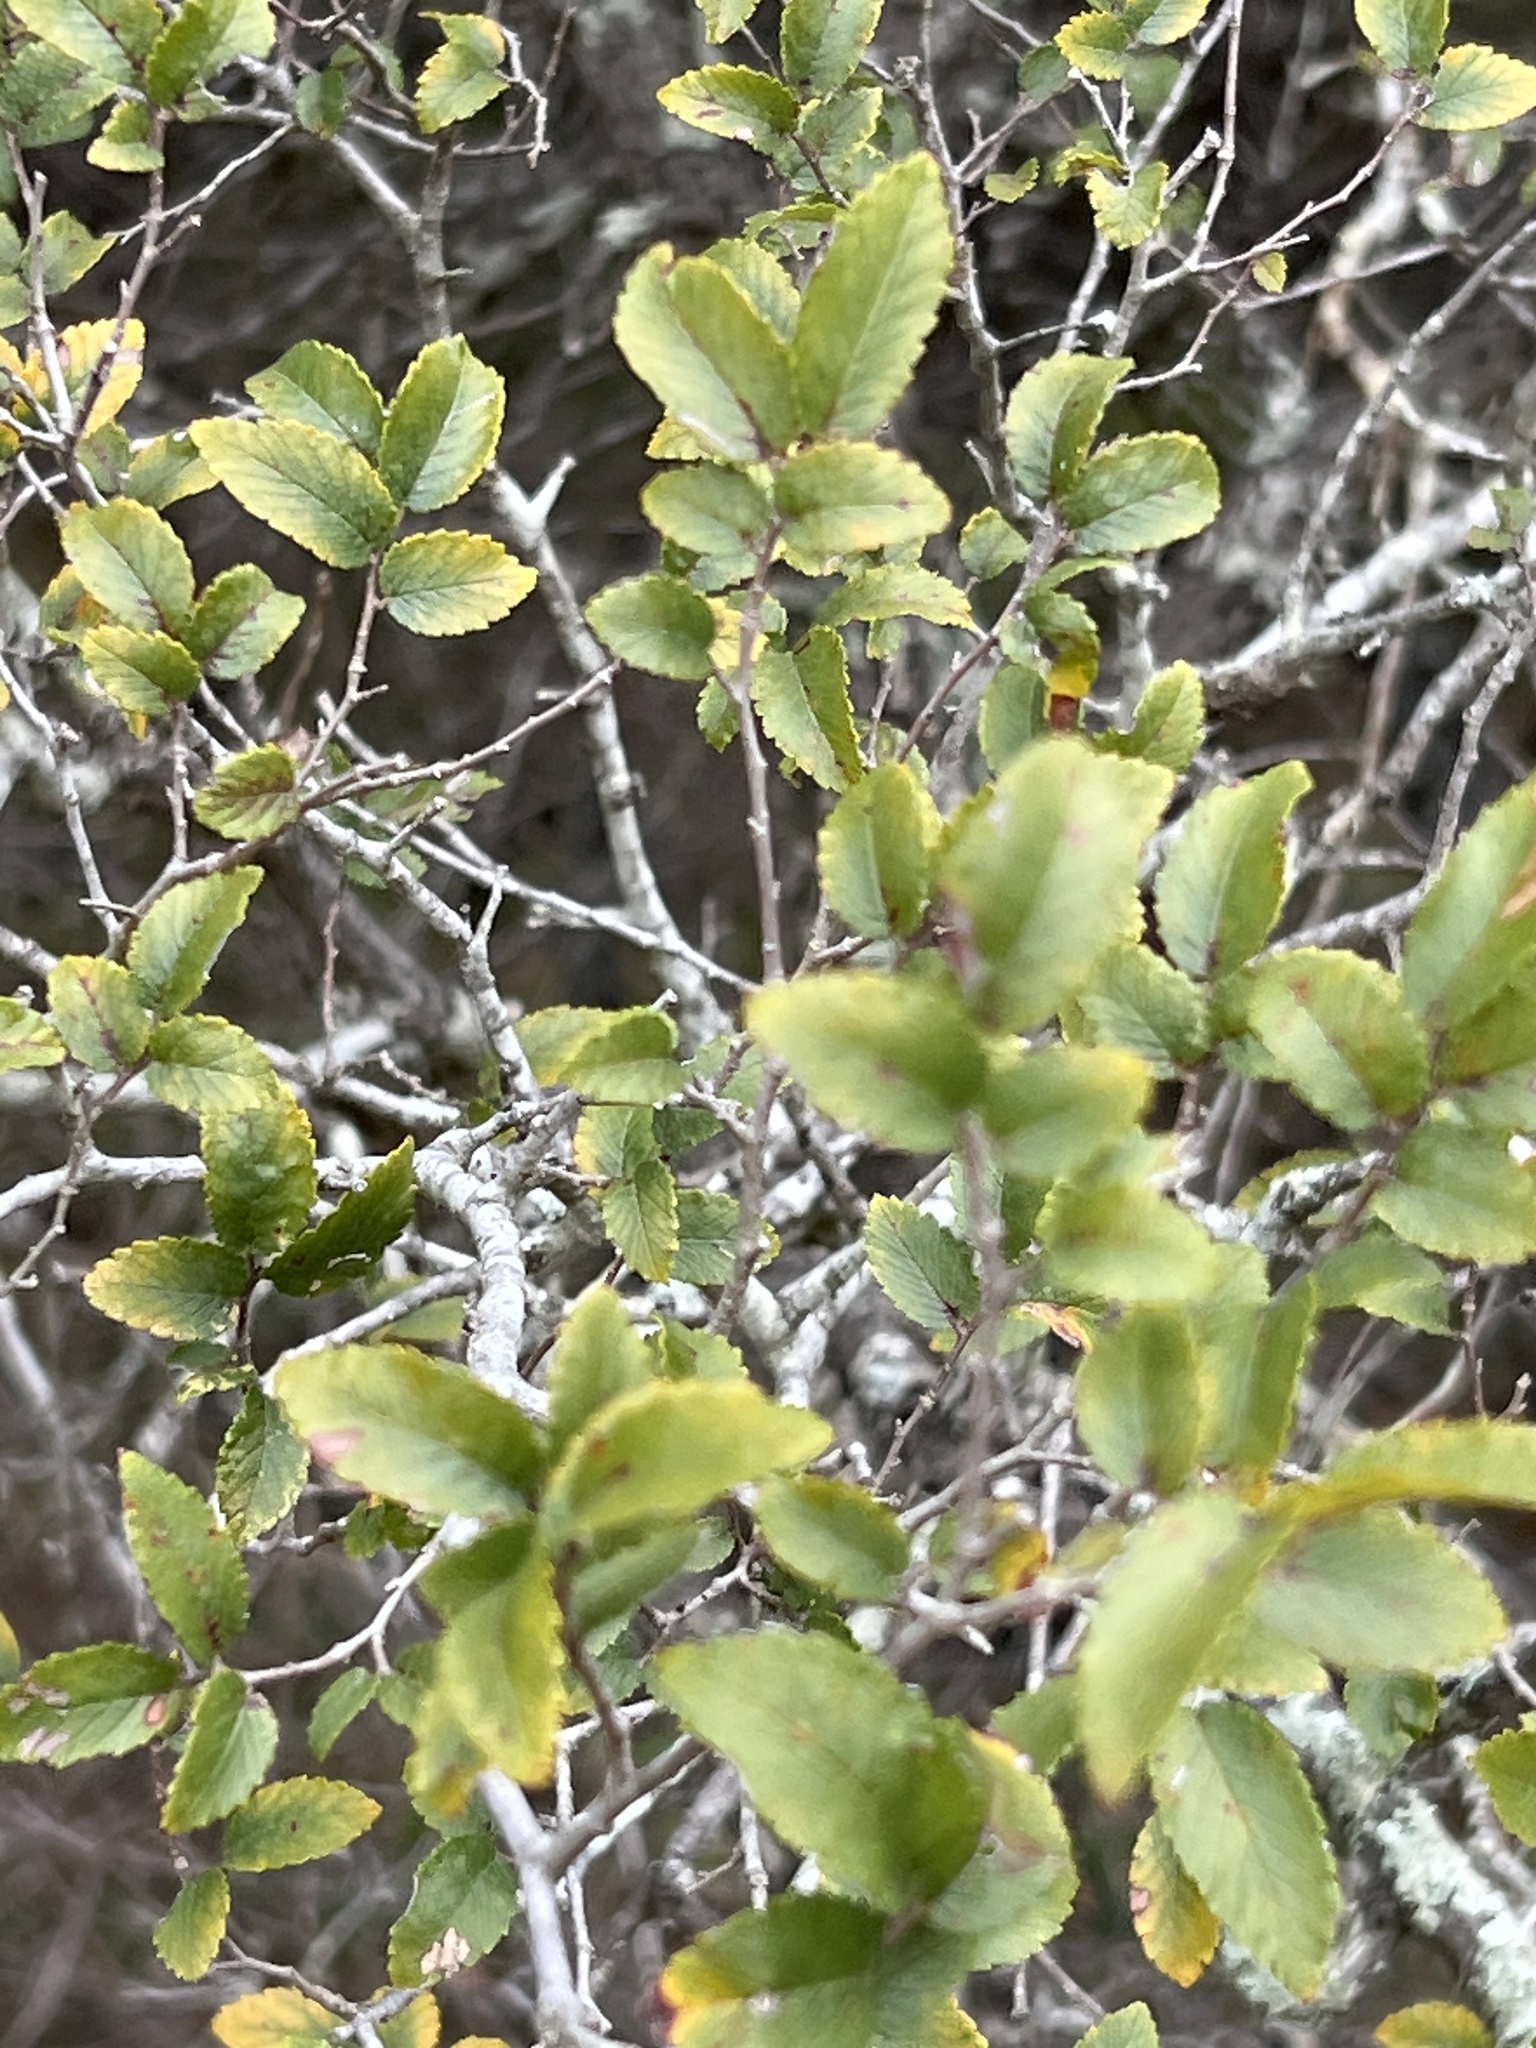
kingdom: Plantae
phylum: Tracheophyta
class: Magnoliopsida
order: Rosales
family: Ulmaceae
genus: Ulmus
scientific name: Ulmus crassifolia
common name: Basket elm
